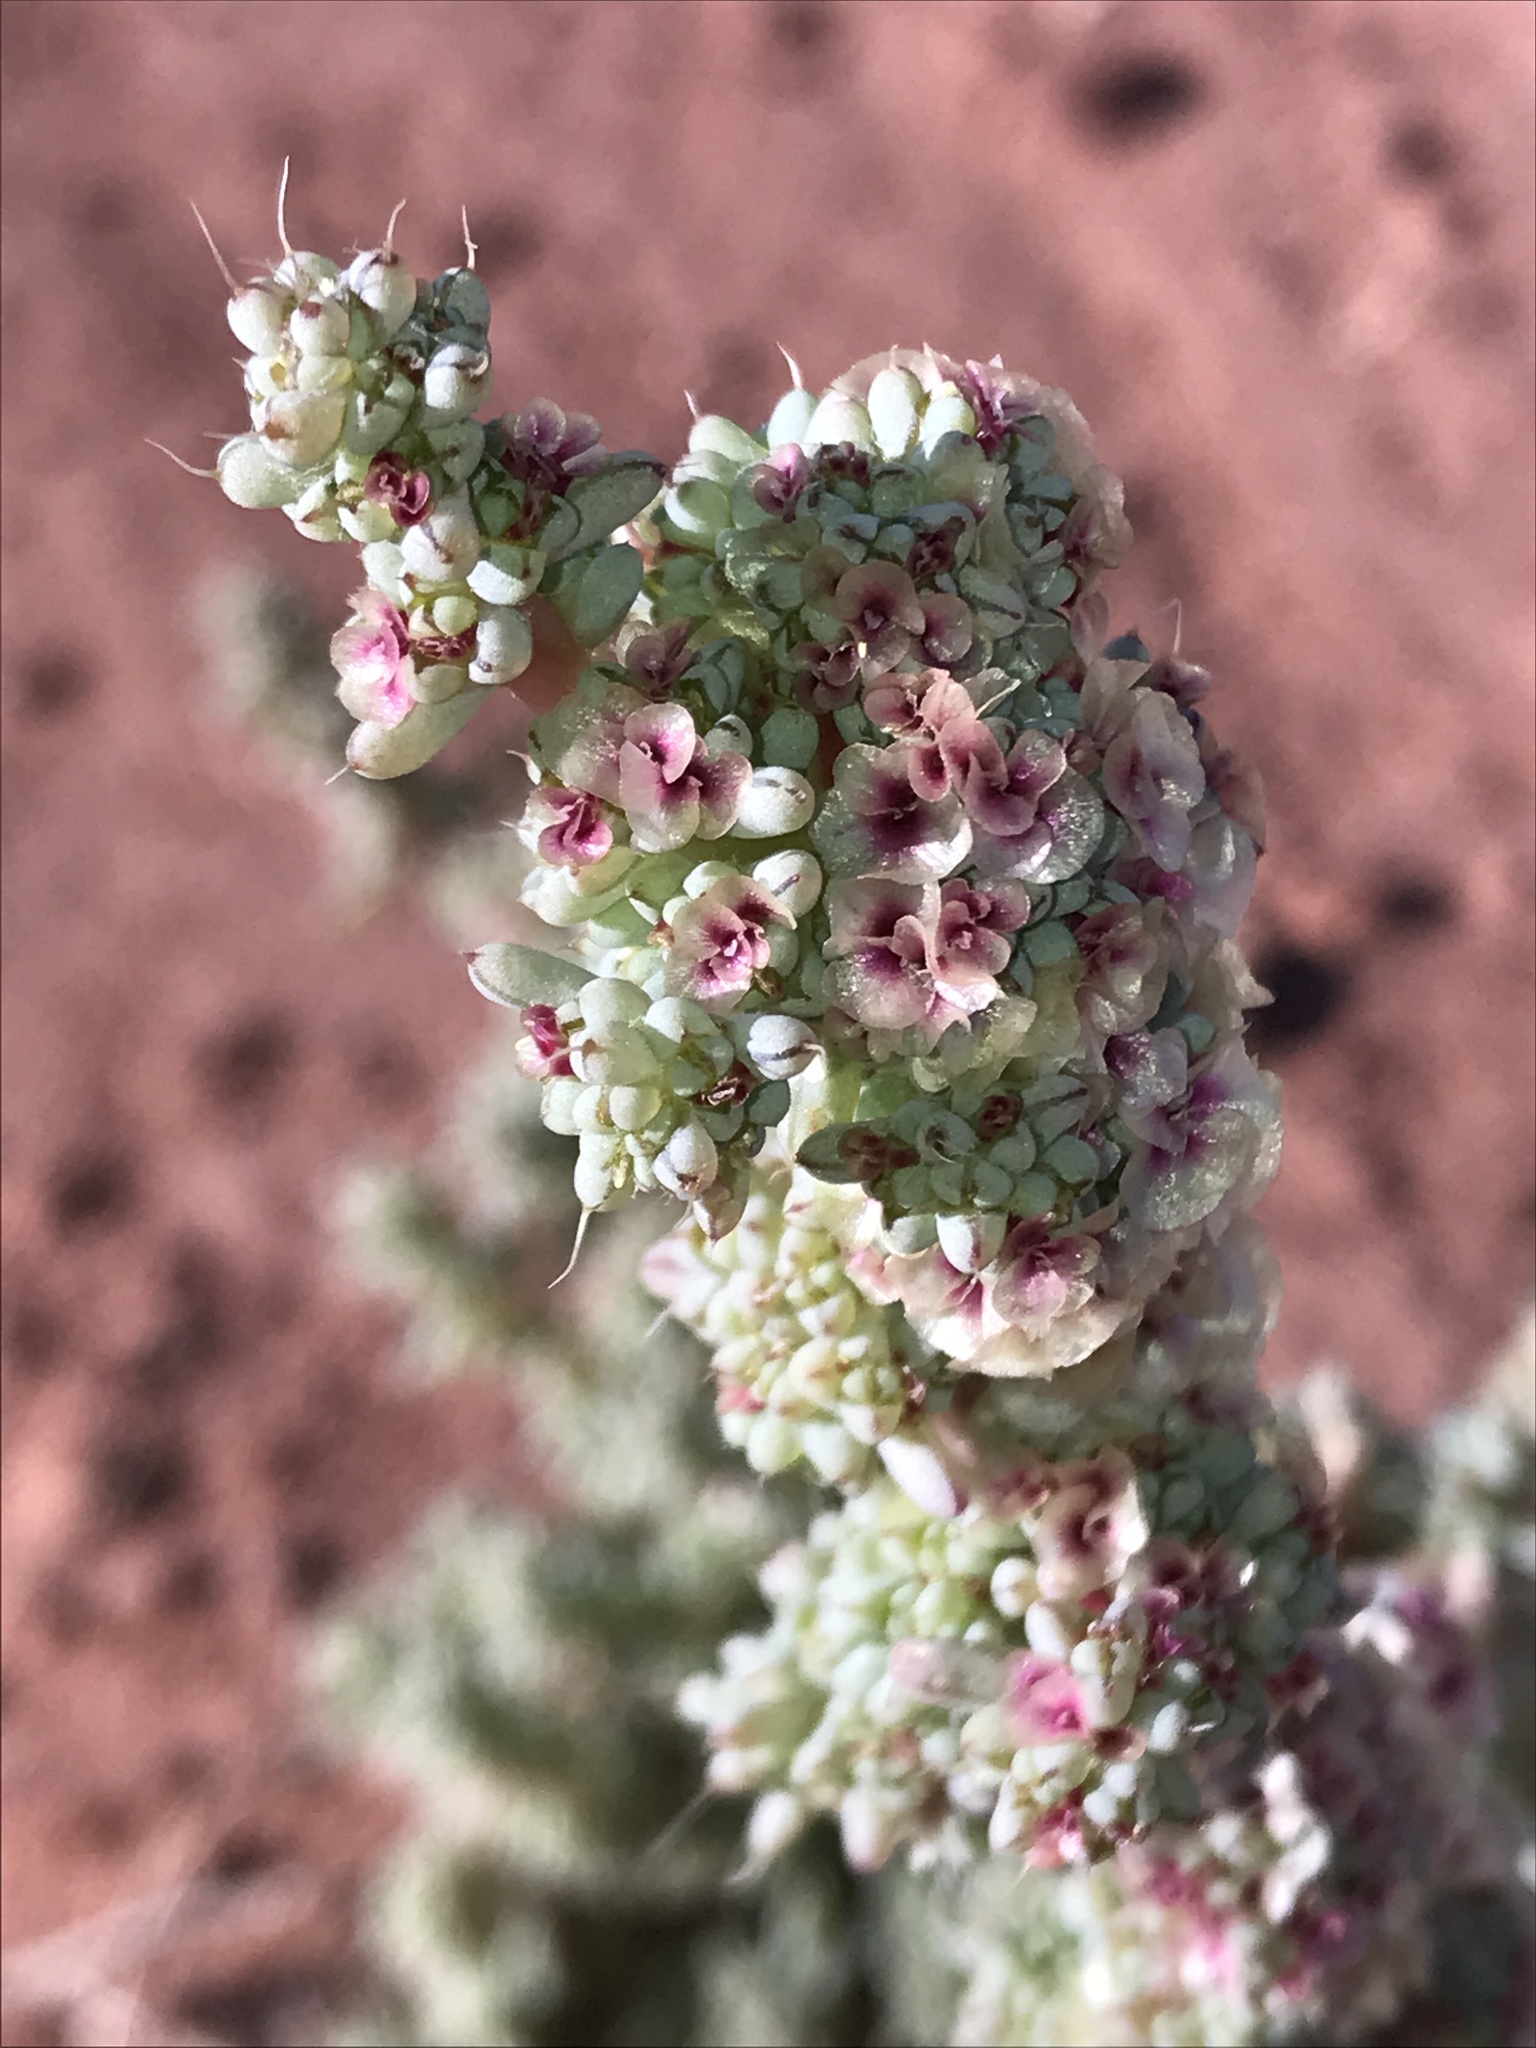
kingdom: Plantae
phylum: Tracheophyta
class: Magnoliopsida
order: Caryophyllales
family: Amaranthaceae
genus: Halogeton
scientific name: Halogeton glomeratus
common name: Saltlover
